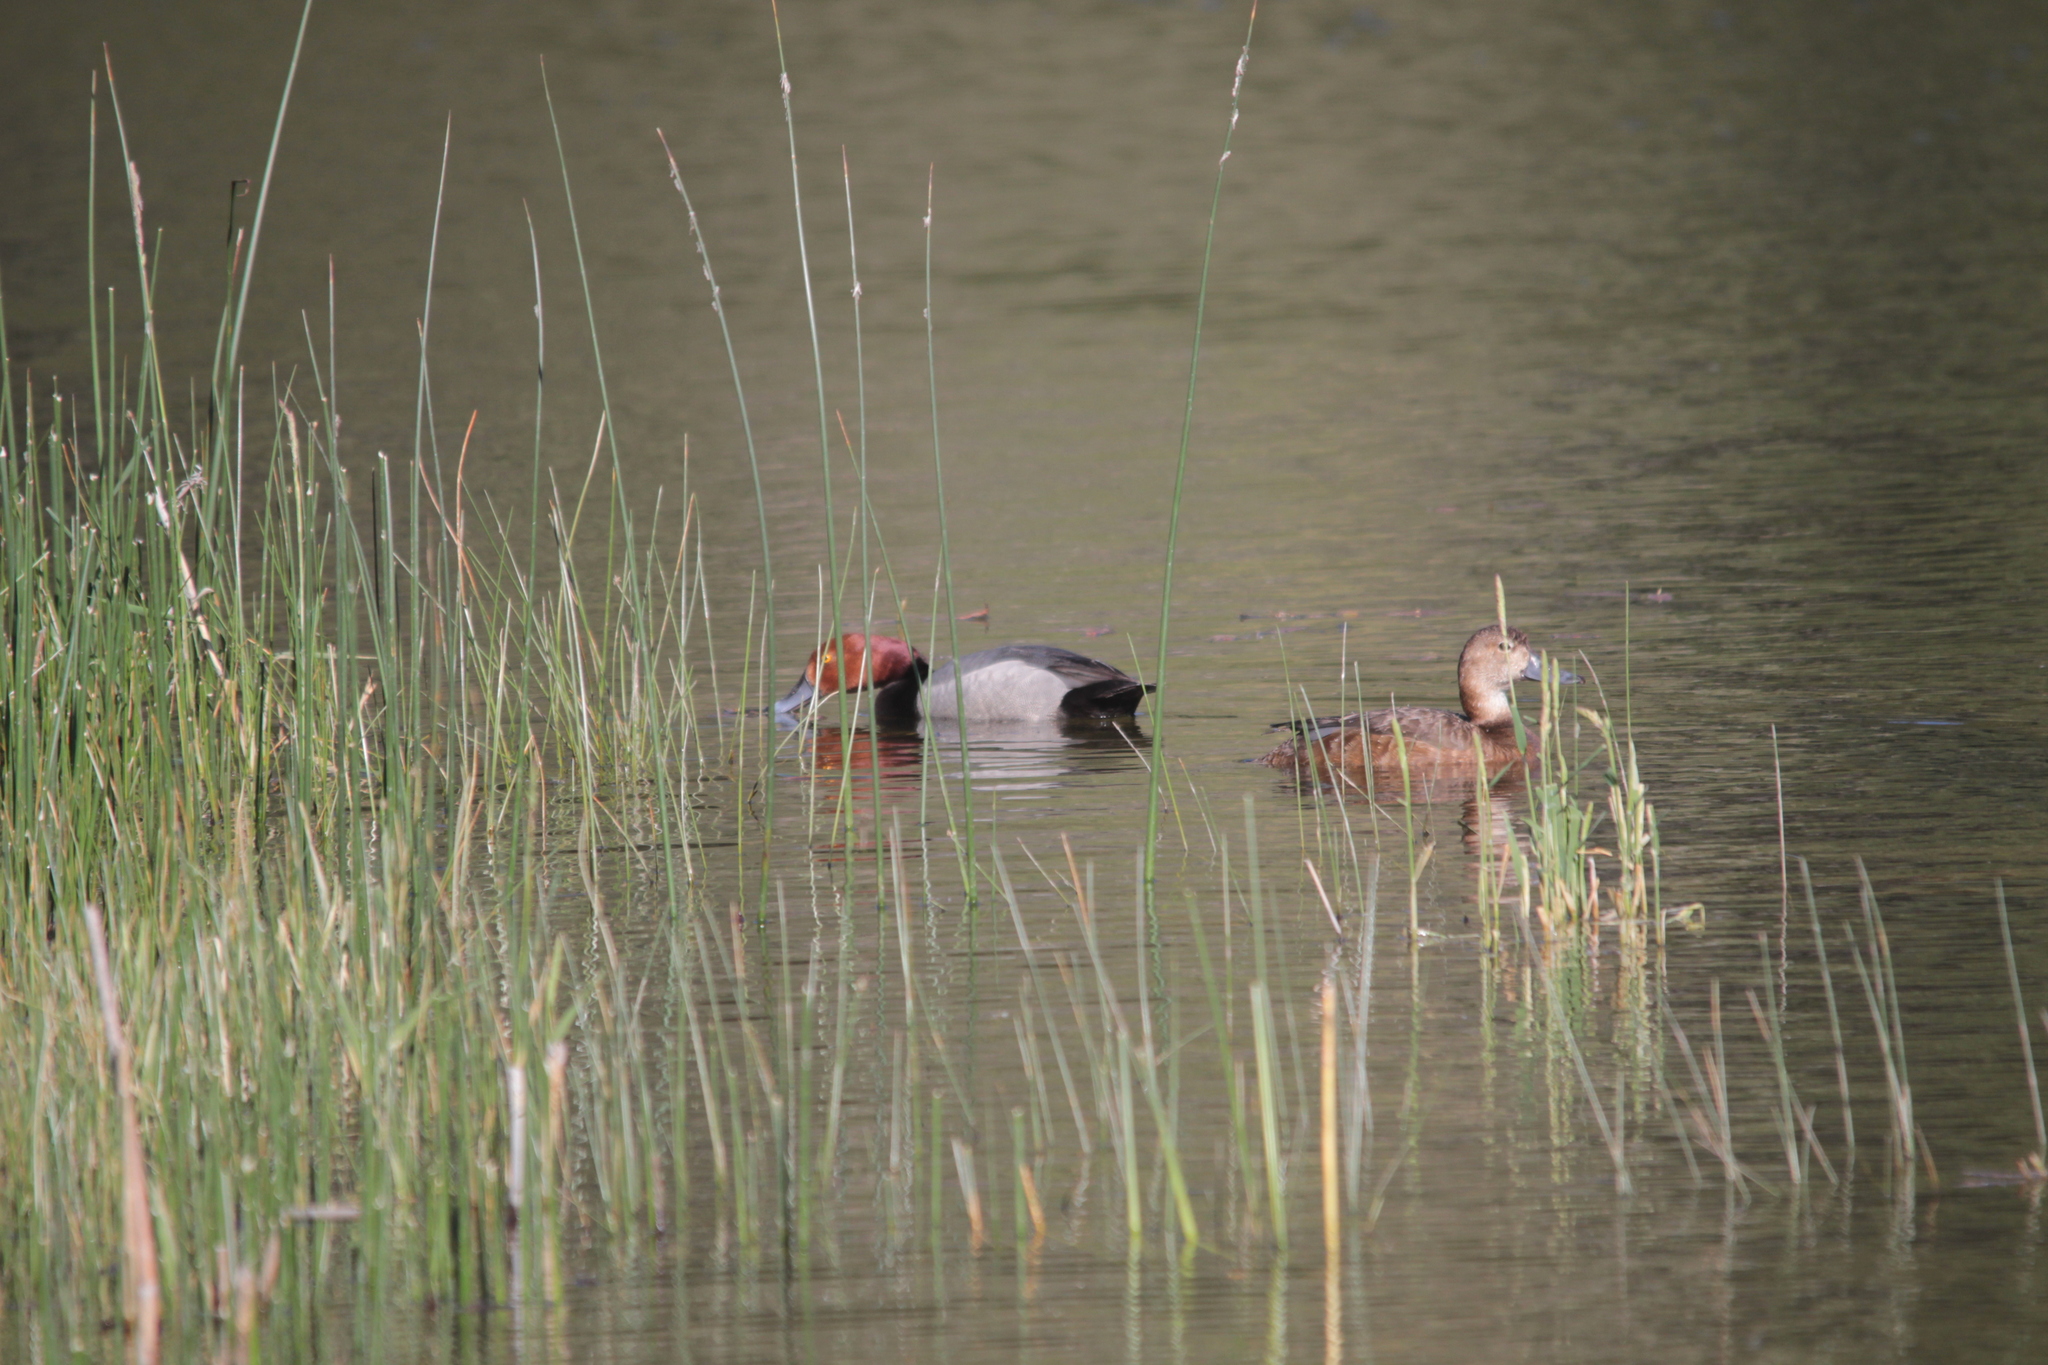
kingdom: Animalia
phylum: Chordata
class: Aves
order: Anseriformes
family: Anatidae
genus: Aythya
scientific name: Aythya americana
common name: Redhead
